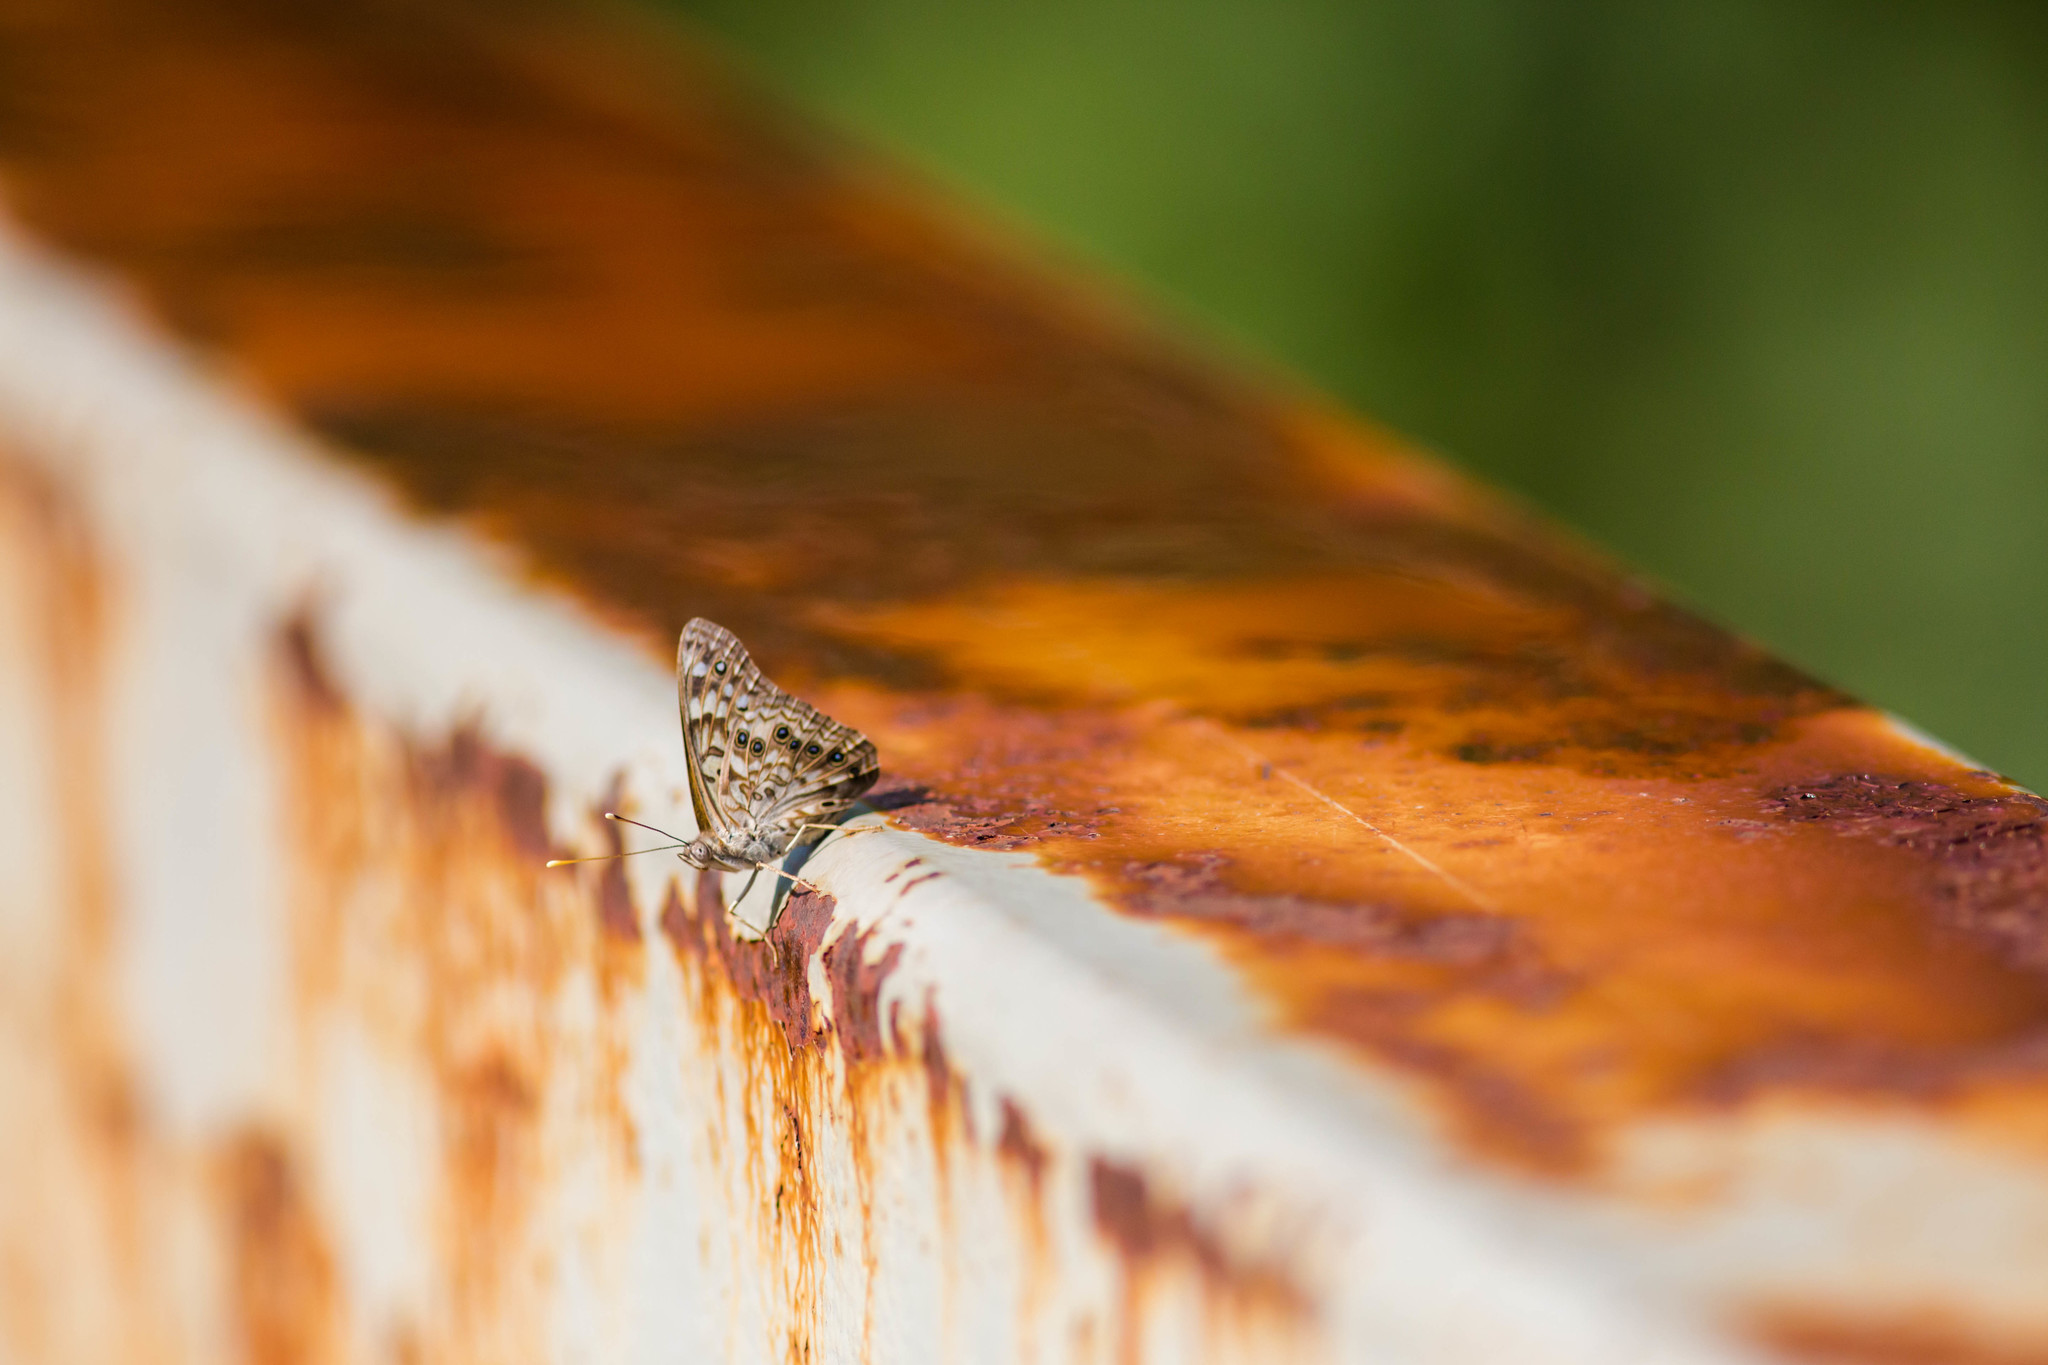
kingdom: Animalia
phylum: Arthropoda
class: Insecta
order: Lepidoptera
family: Nymphalidae
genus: Asterocampa
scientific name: Asterocampa celtis
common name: Hackberry emperor
